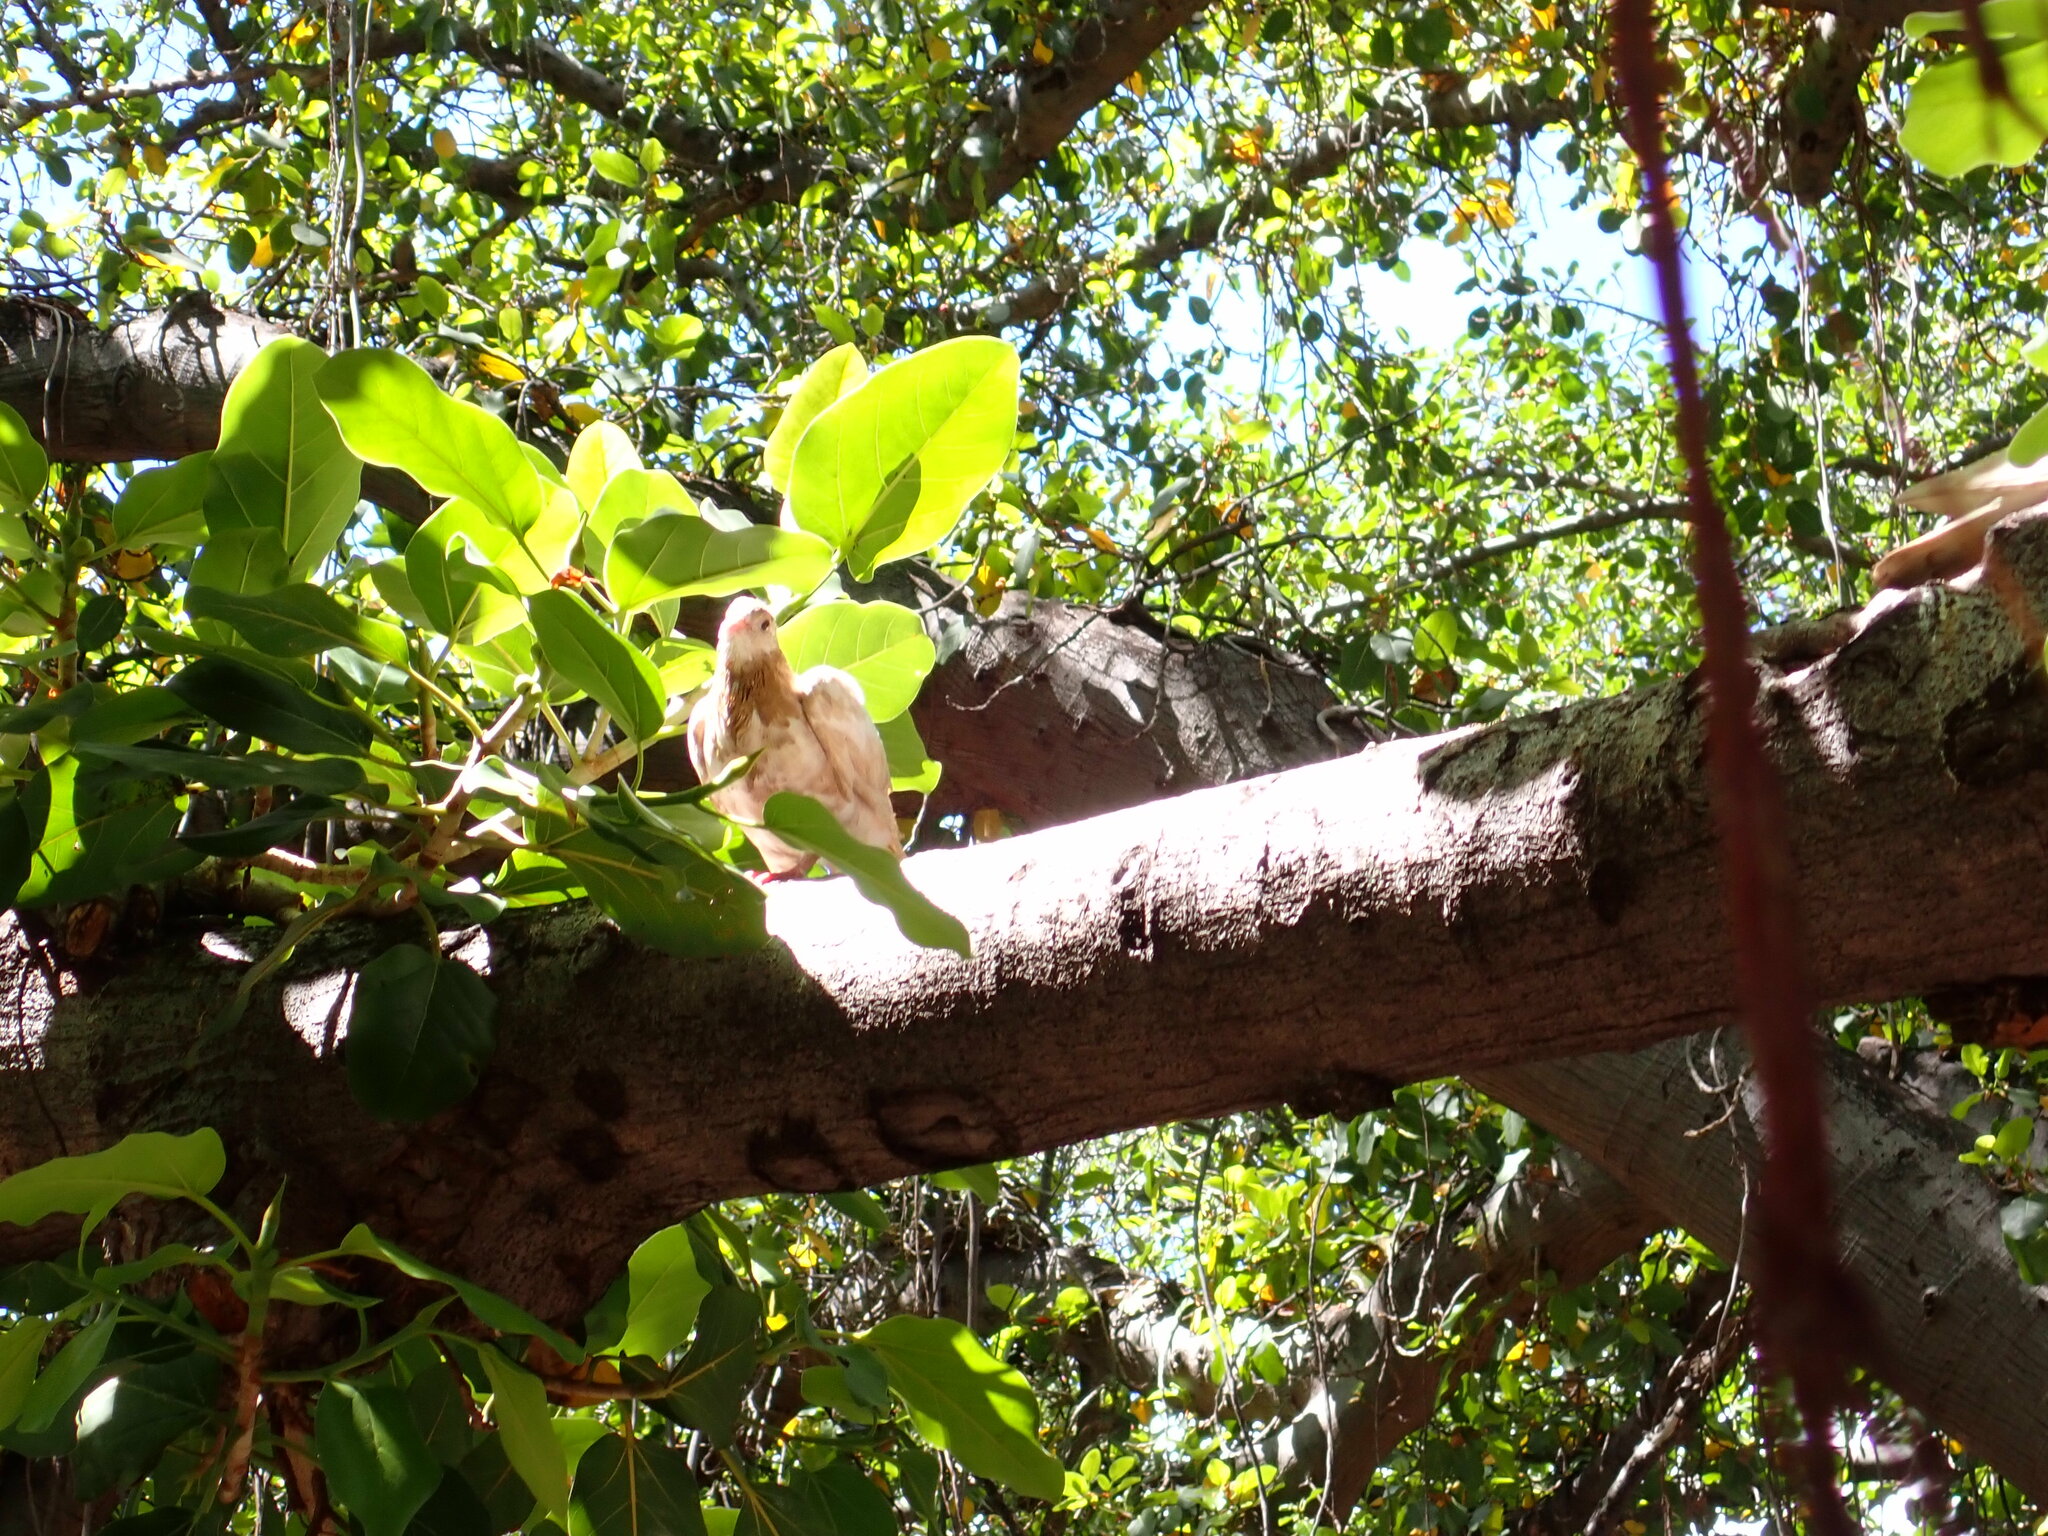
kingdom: Animalia
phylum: Chordata
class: Aves
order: Columbiformes
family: Columbidae
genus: Columba
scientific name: Columba livia
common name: Rock pigeon
